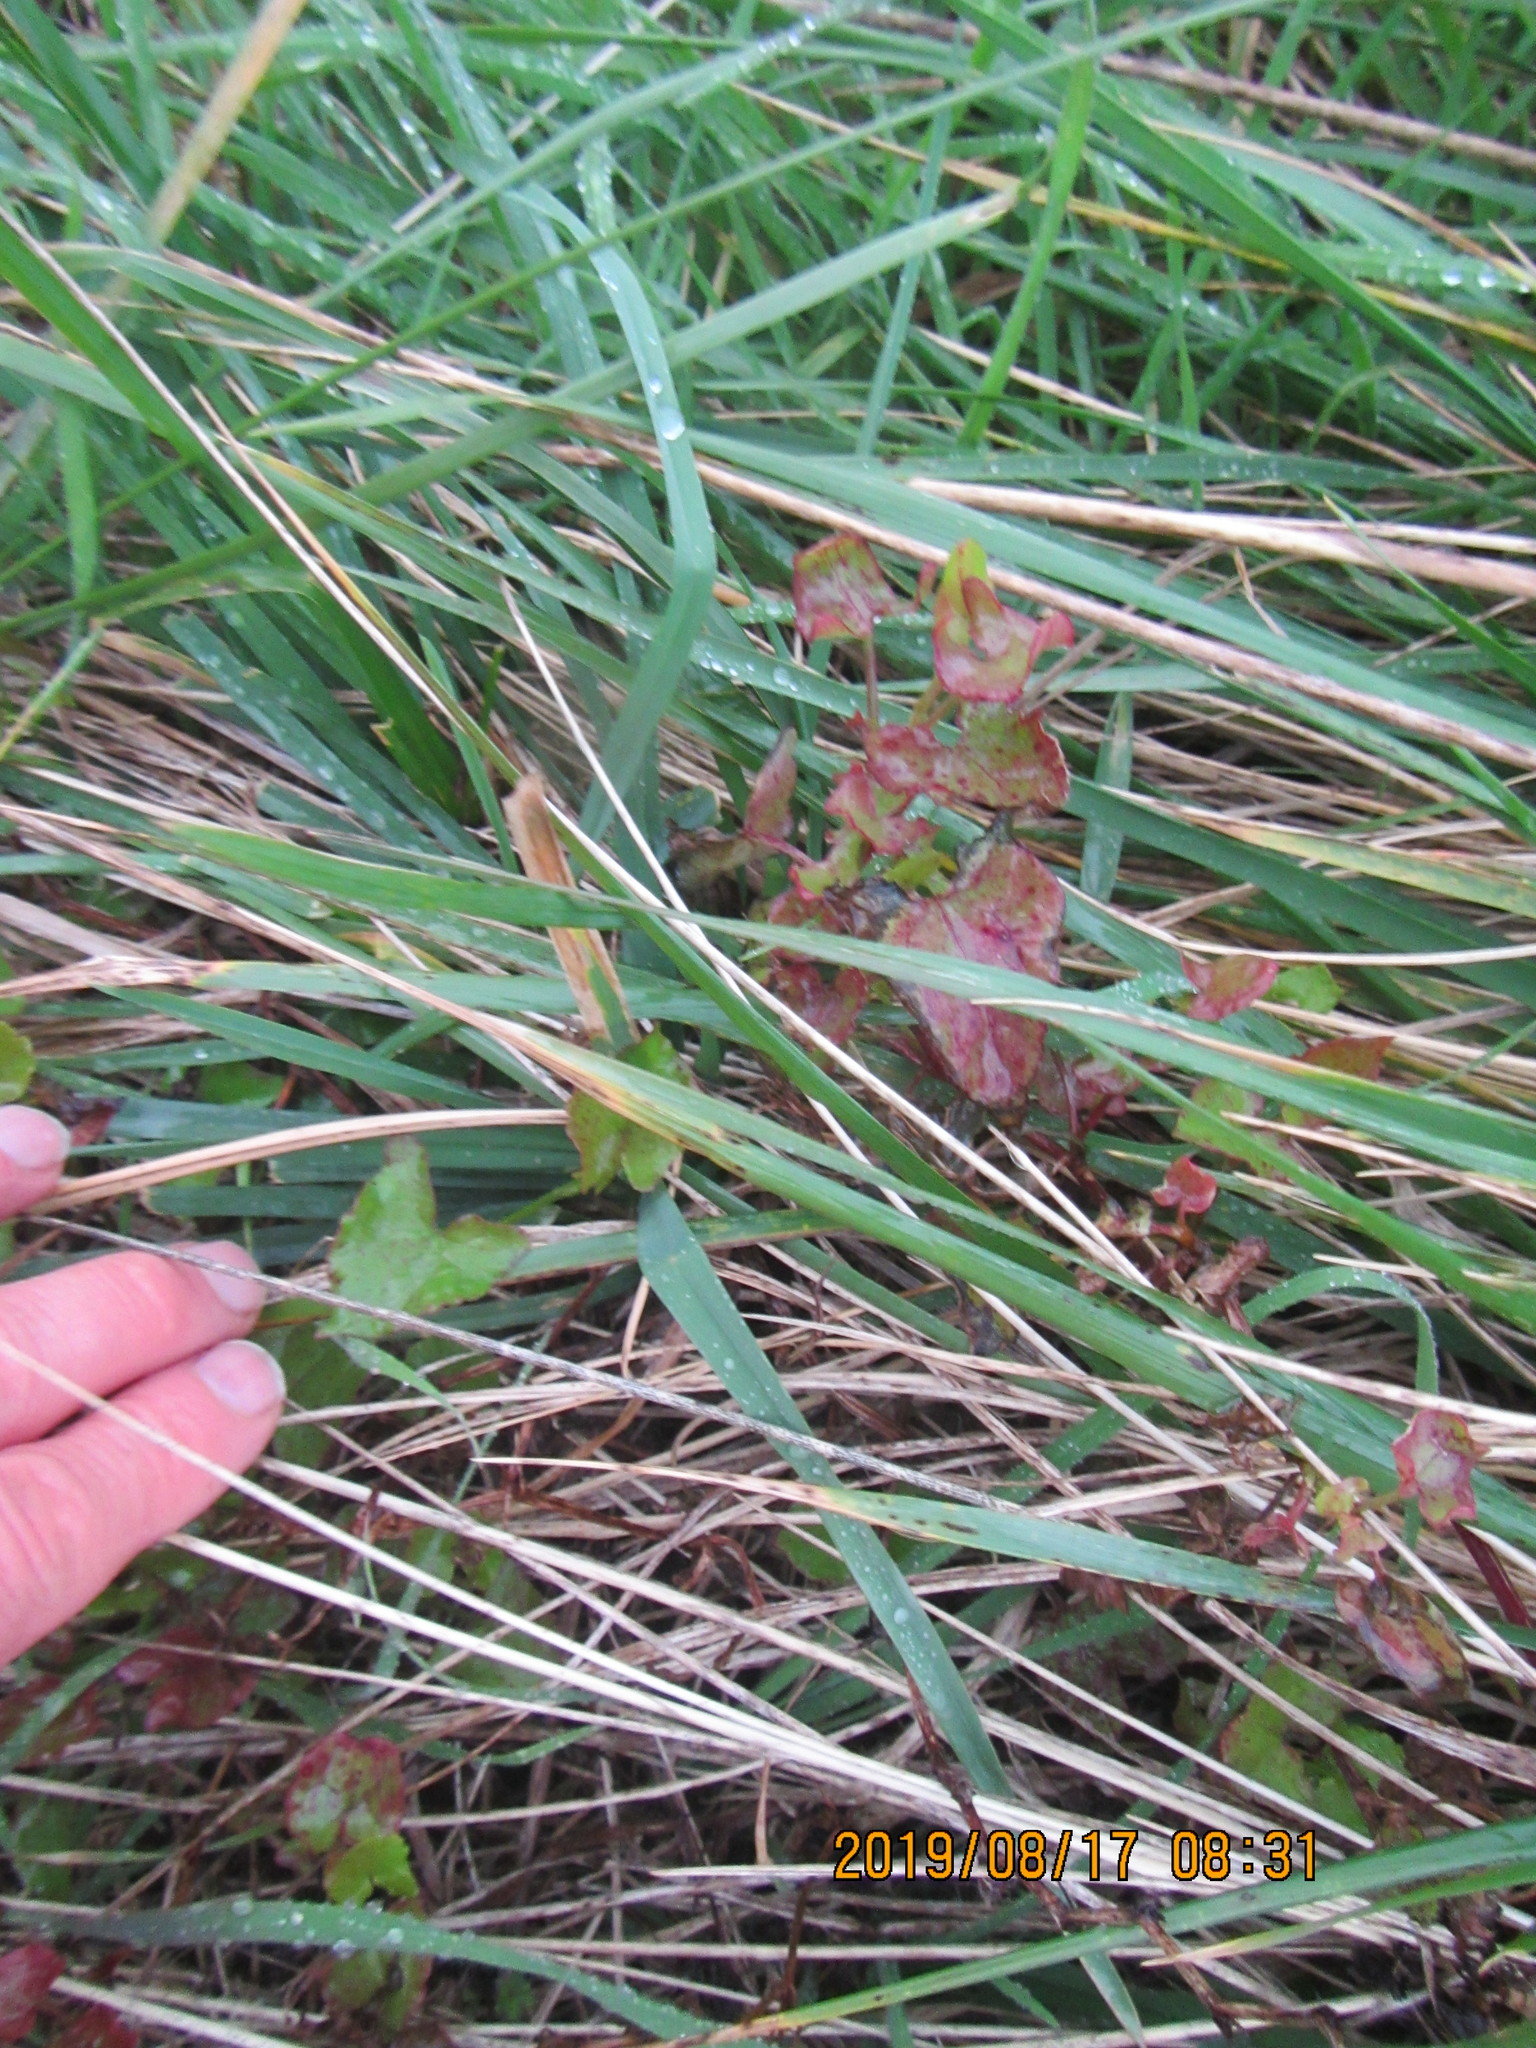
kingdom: Plantae
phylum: Tracheophyta
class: Magnoliopsida
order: Caryophyllales
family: Polygonaceae
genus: Rumex
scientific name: Rumex sagittatus
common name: Climbing dock
